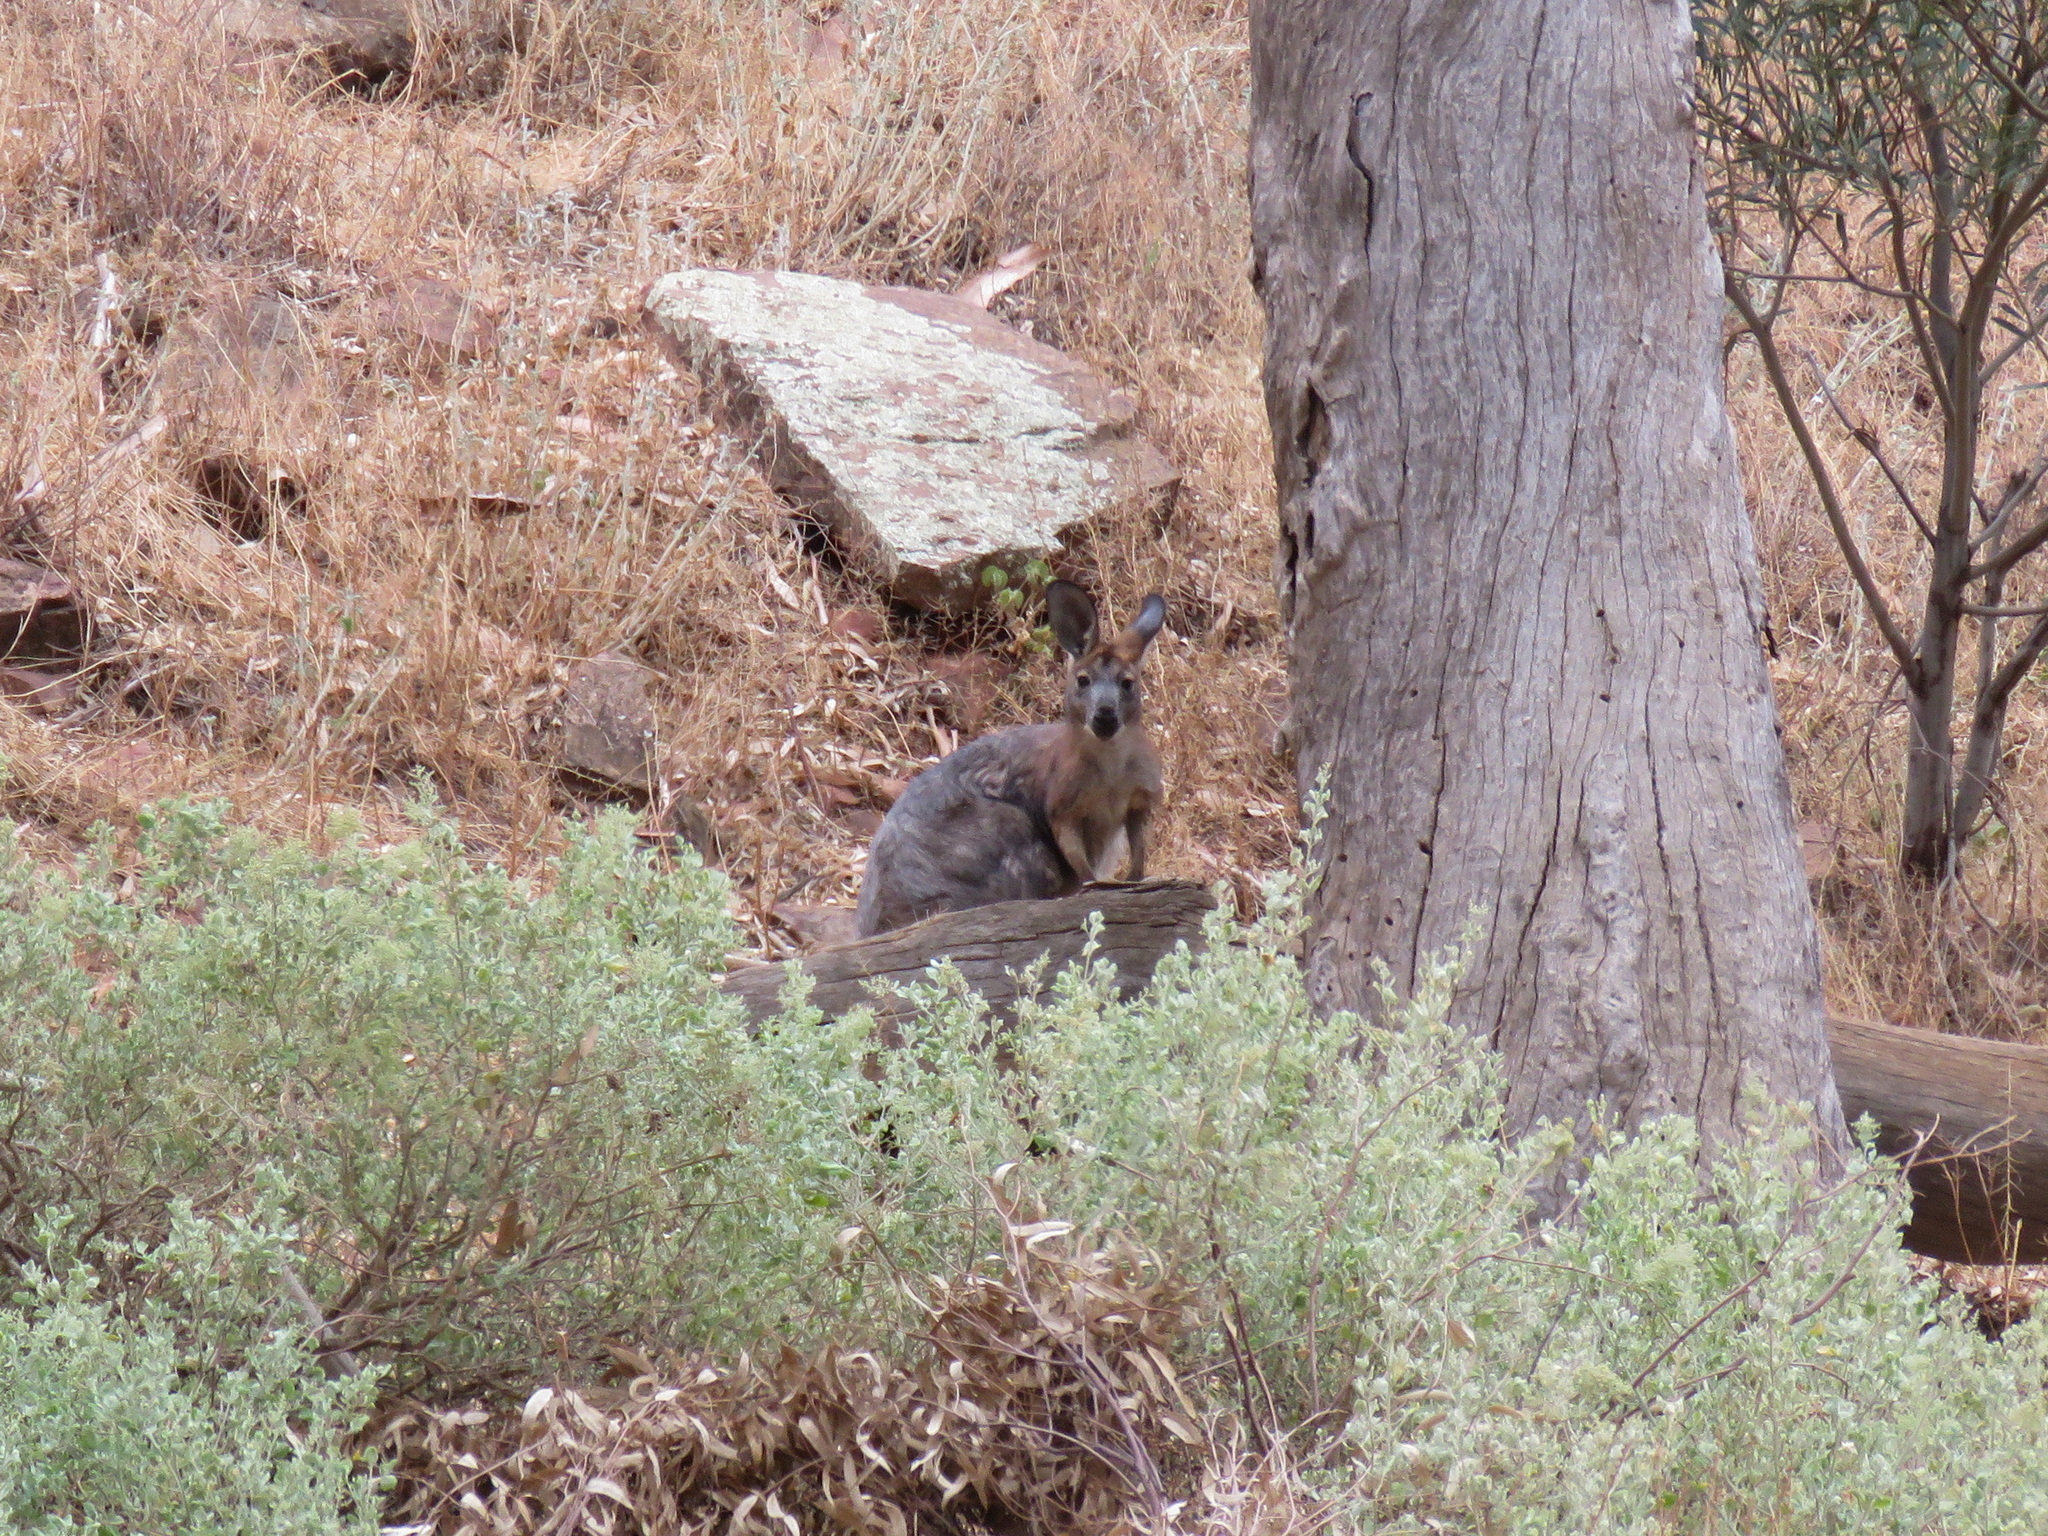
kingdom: Animalia
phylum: Chordata
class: Mammalia
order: Diprotodontia
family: Macropodidae
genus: Macropus
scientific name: Macropus robustus
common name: Eastern wallaroo
